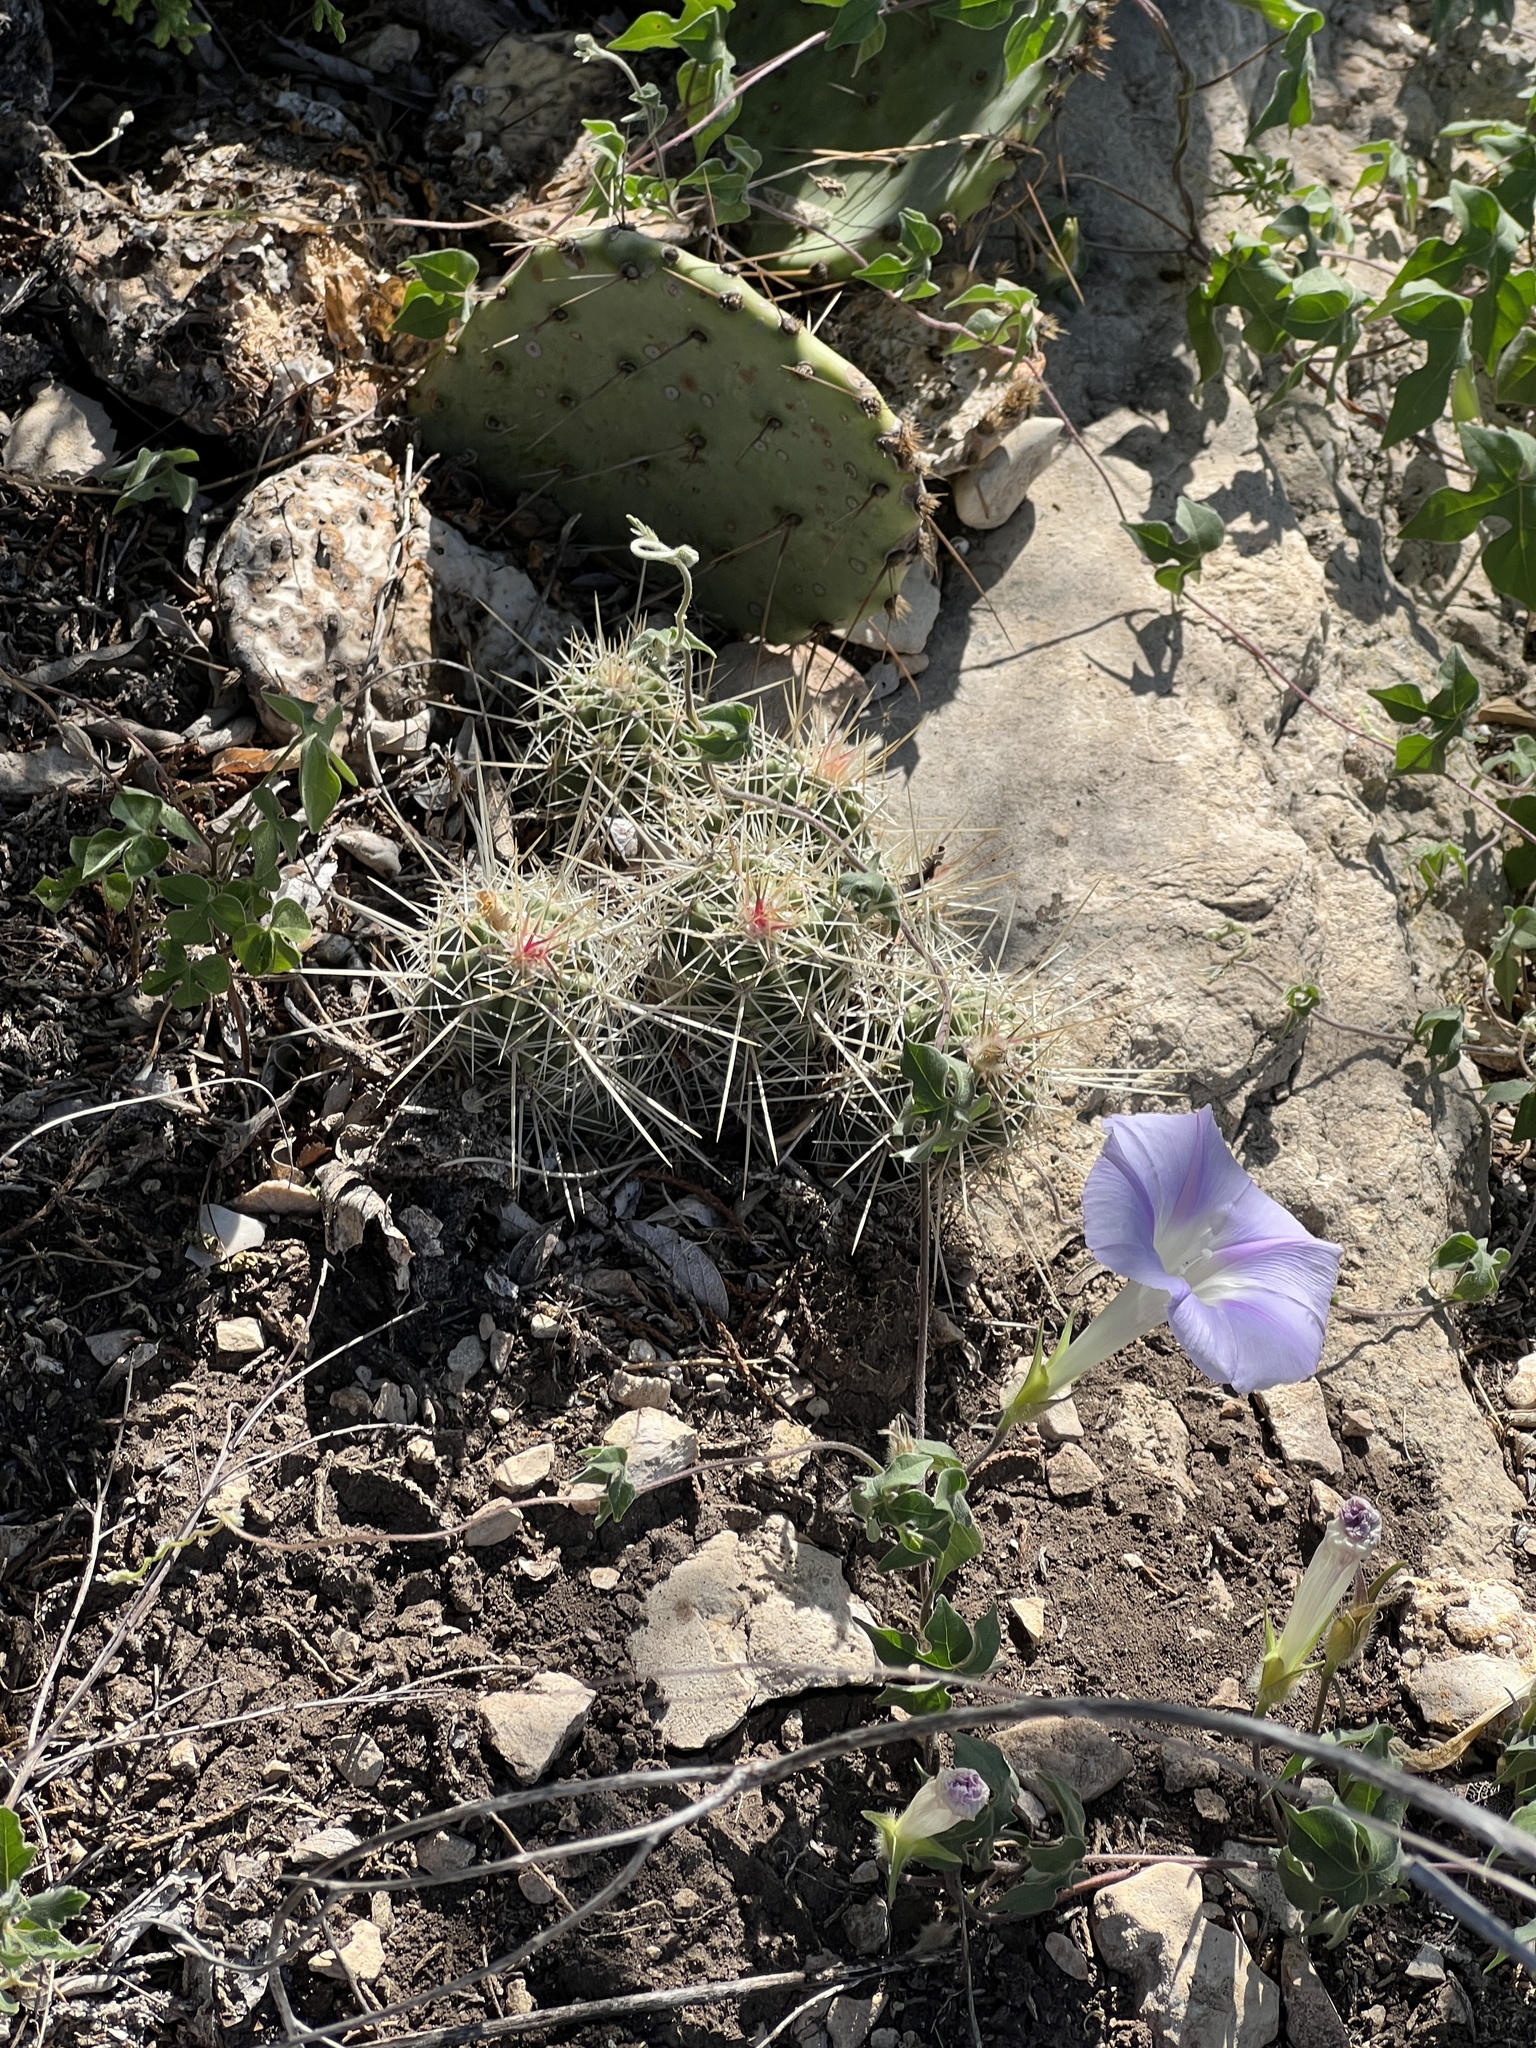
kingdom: Plantae
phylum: Tracheophyta
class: Magnoliopsida
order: Caryophyllales
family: Cactaceae
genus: Echinocereus
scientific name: Echinocereus enneacanthus
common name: Pitaya
